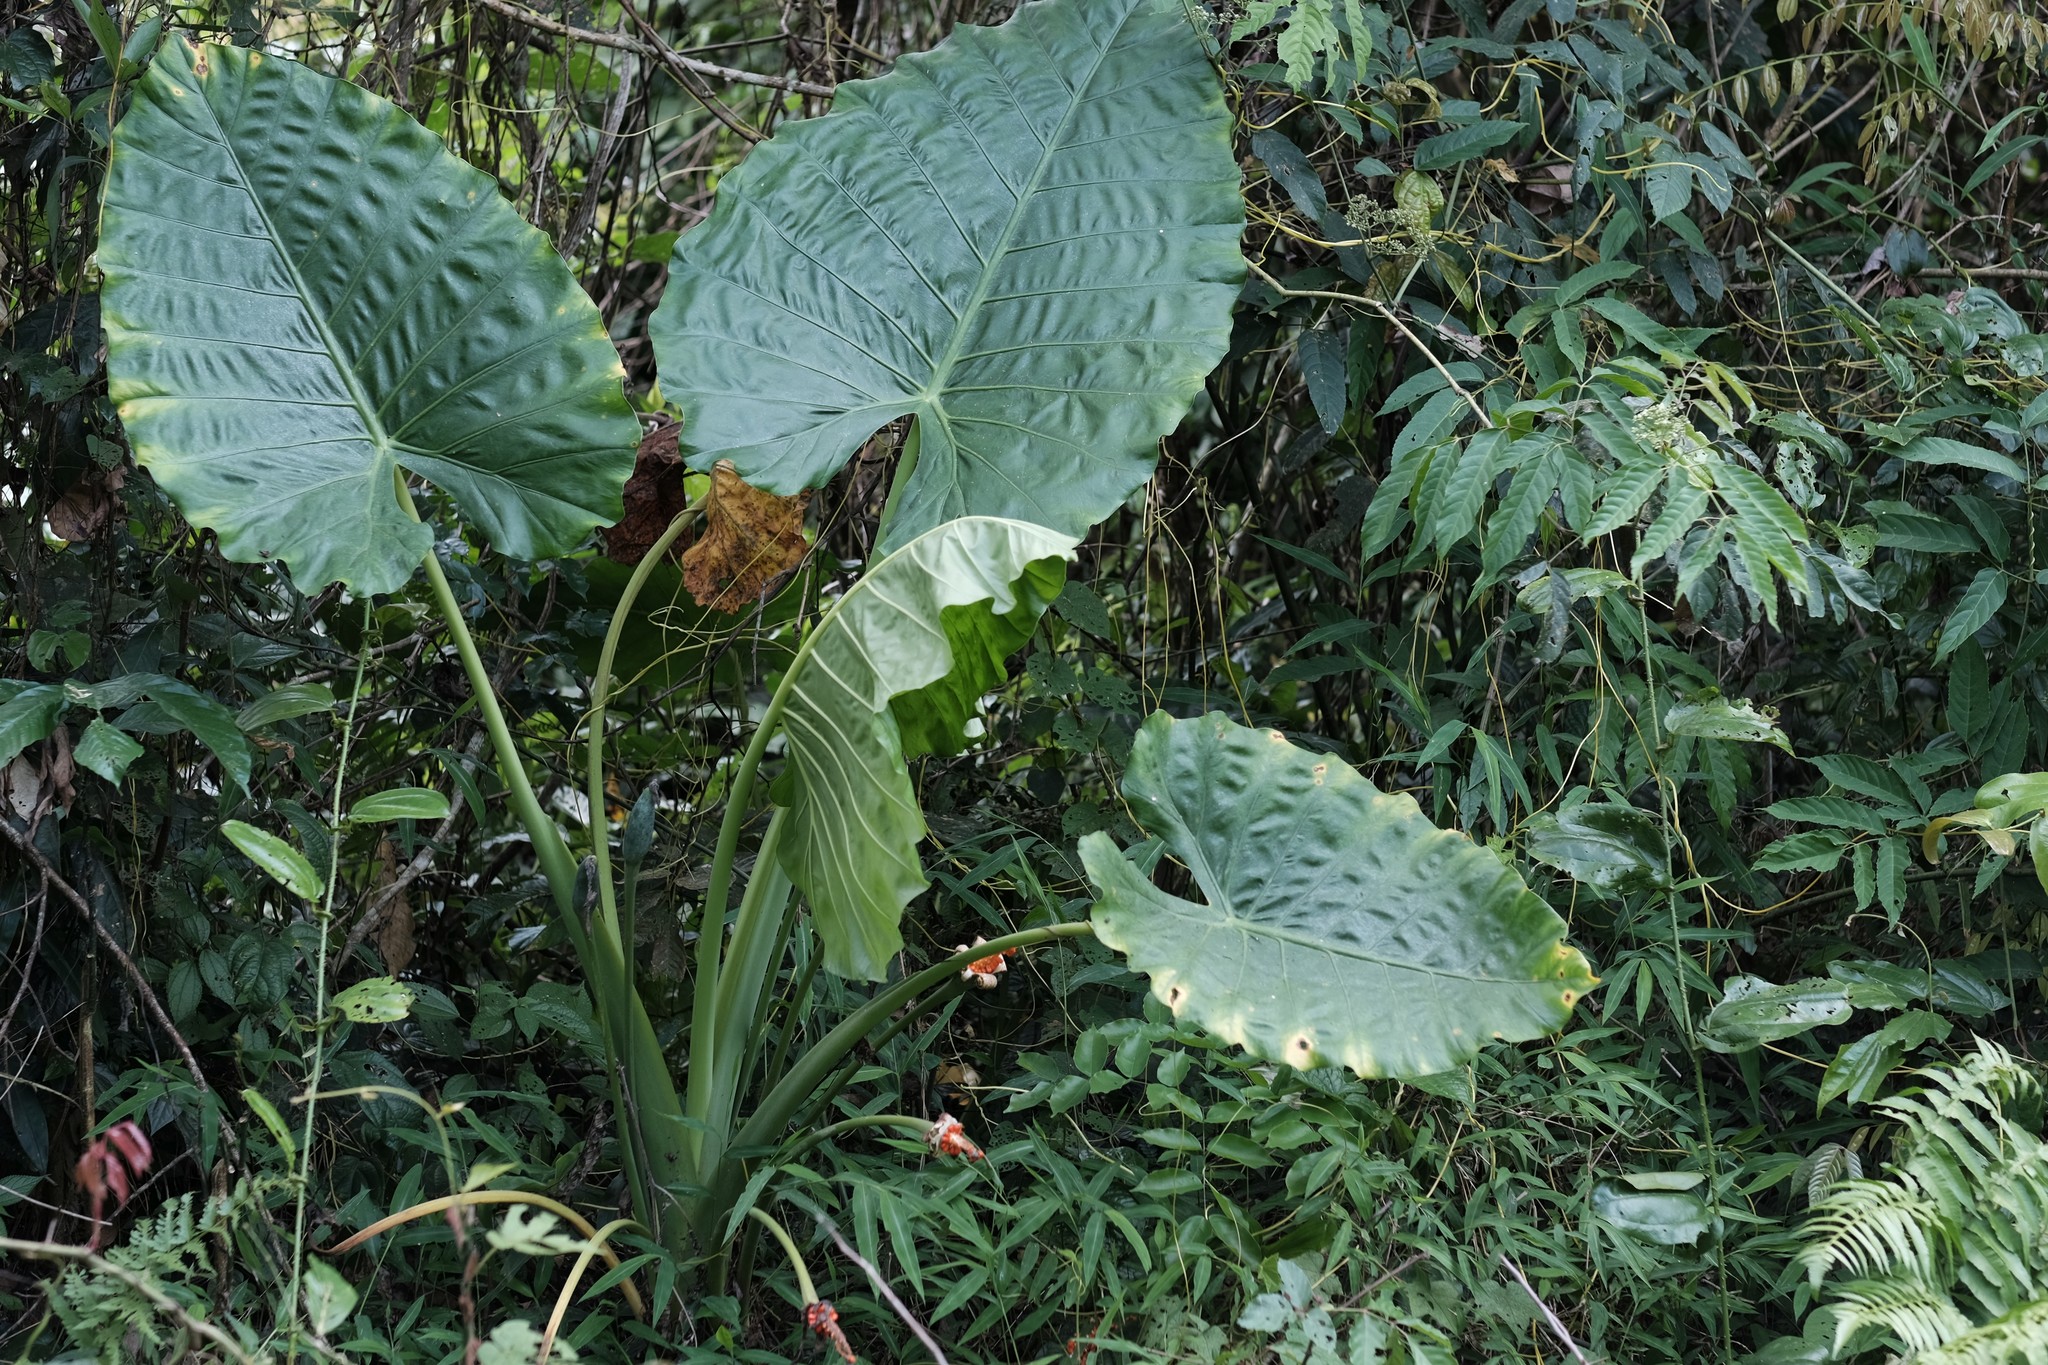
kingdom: Plantae
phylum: Tracheophyta
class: Liliopsida
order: Alismatales
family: Araceae
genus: Alocasia
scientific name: Alocasia odora
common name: Asian taro
